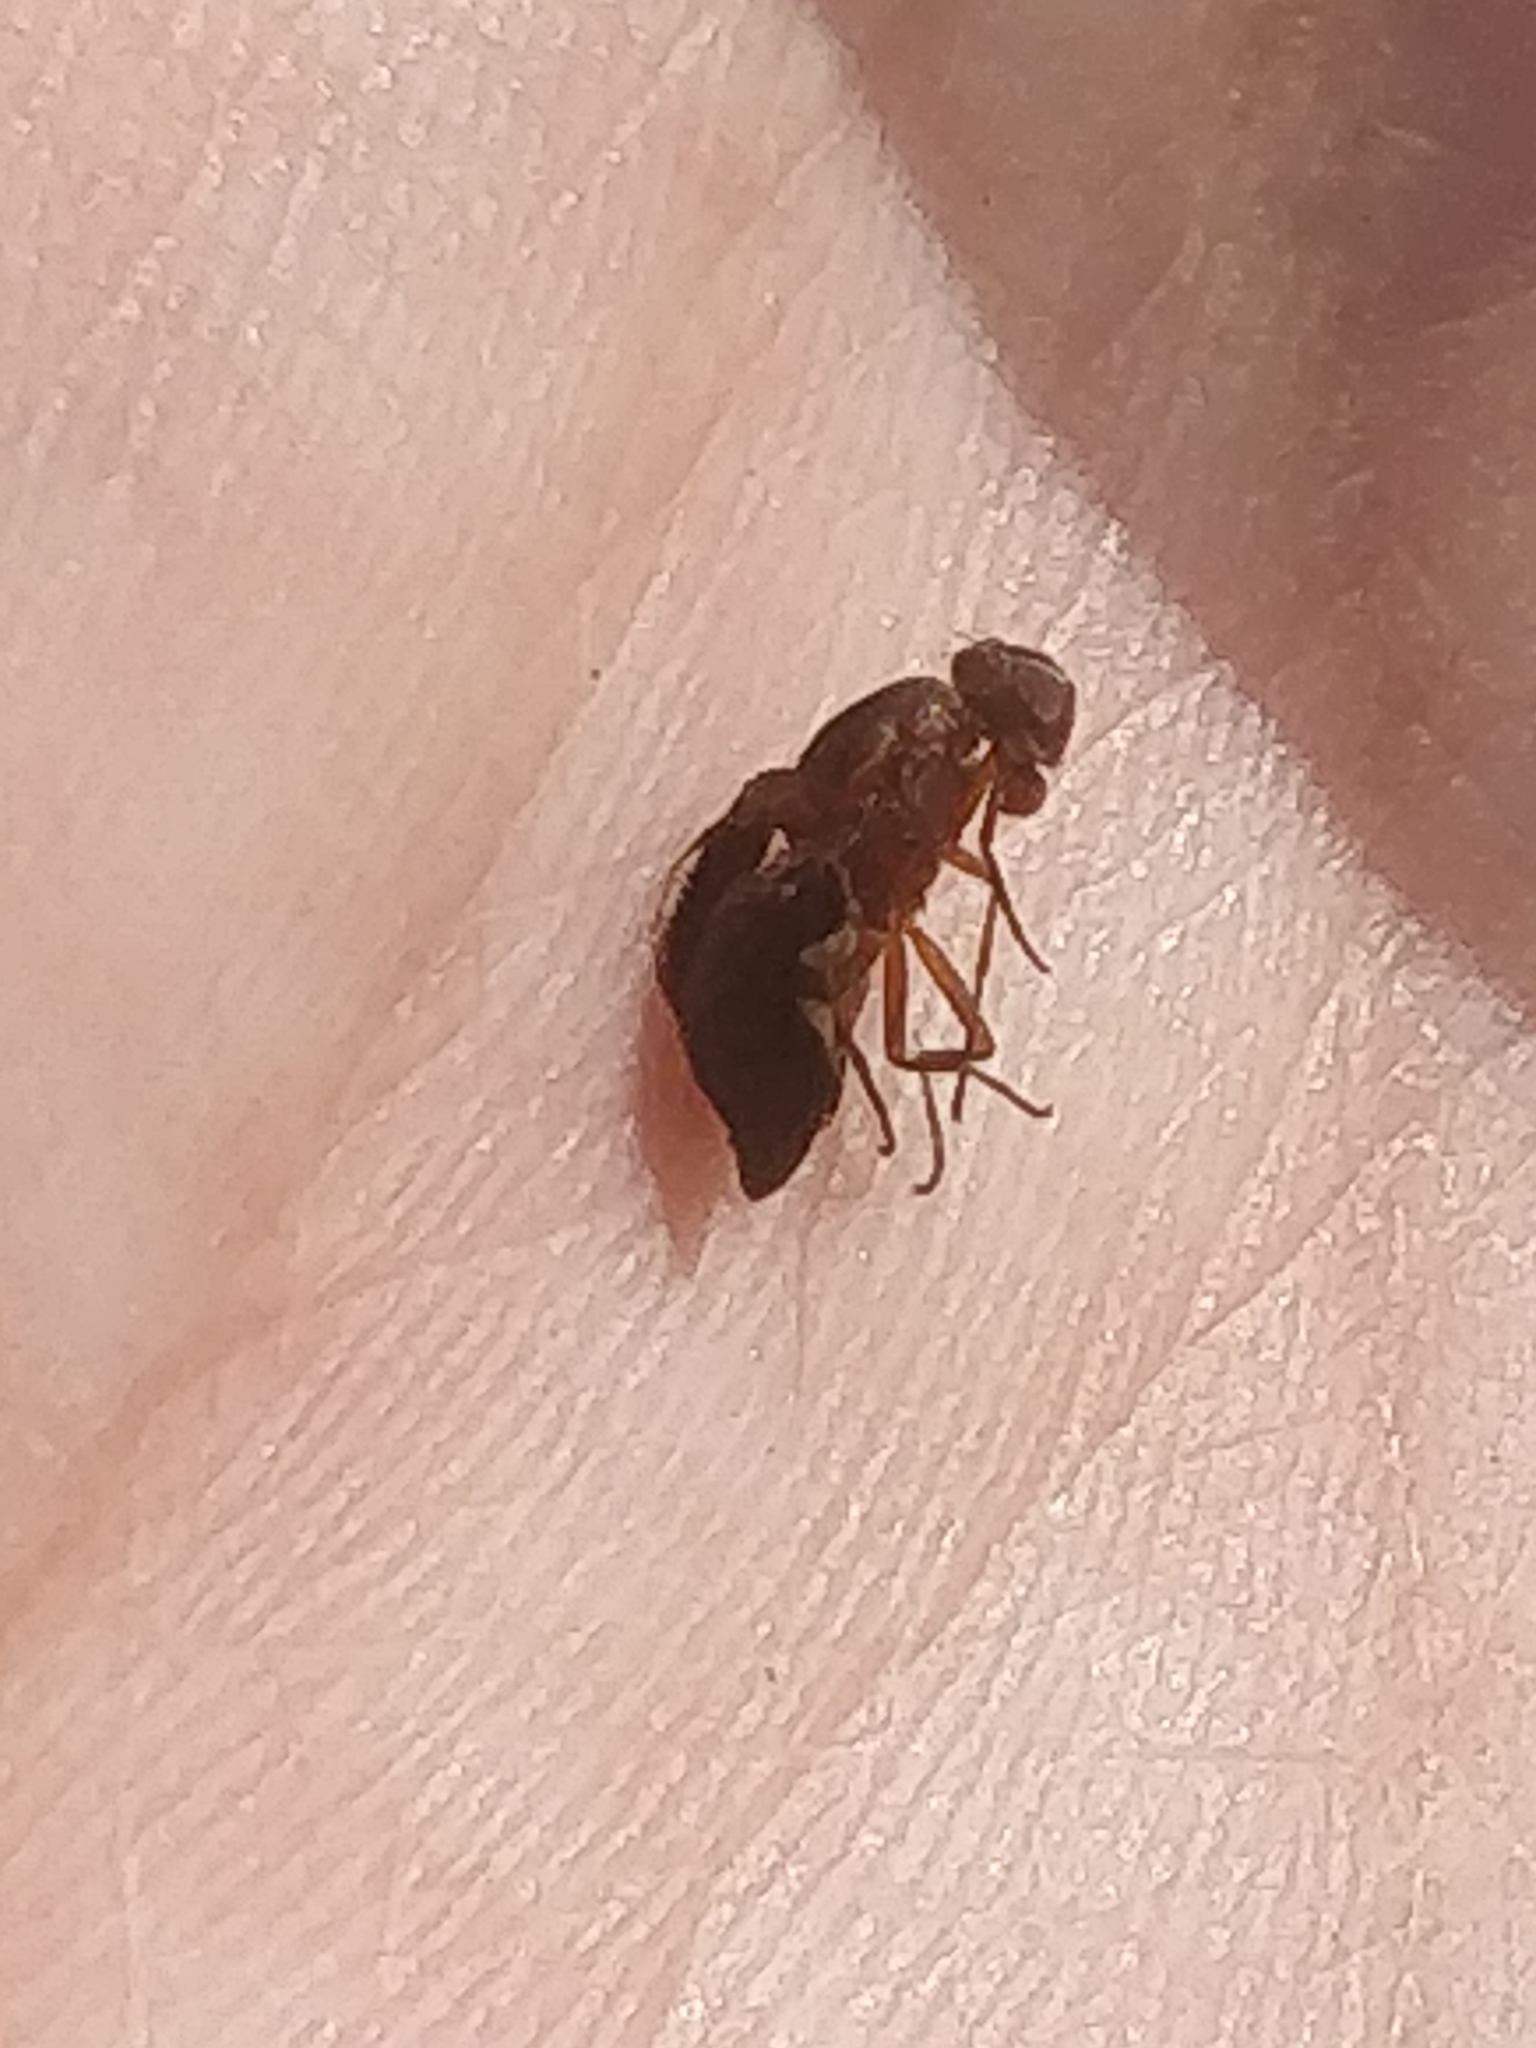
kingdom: Animalia
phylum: Arthropoda
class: Insecta
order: Diptera
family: Ulidiidae
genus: Delphinia
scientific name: Delphinia picta
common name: Common picture-winged fly
